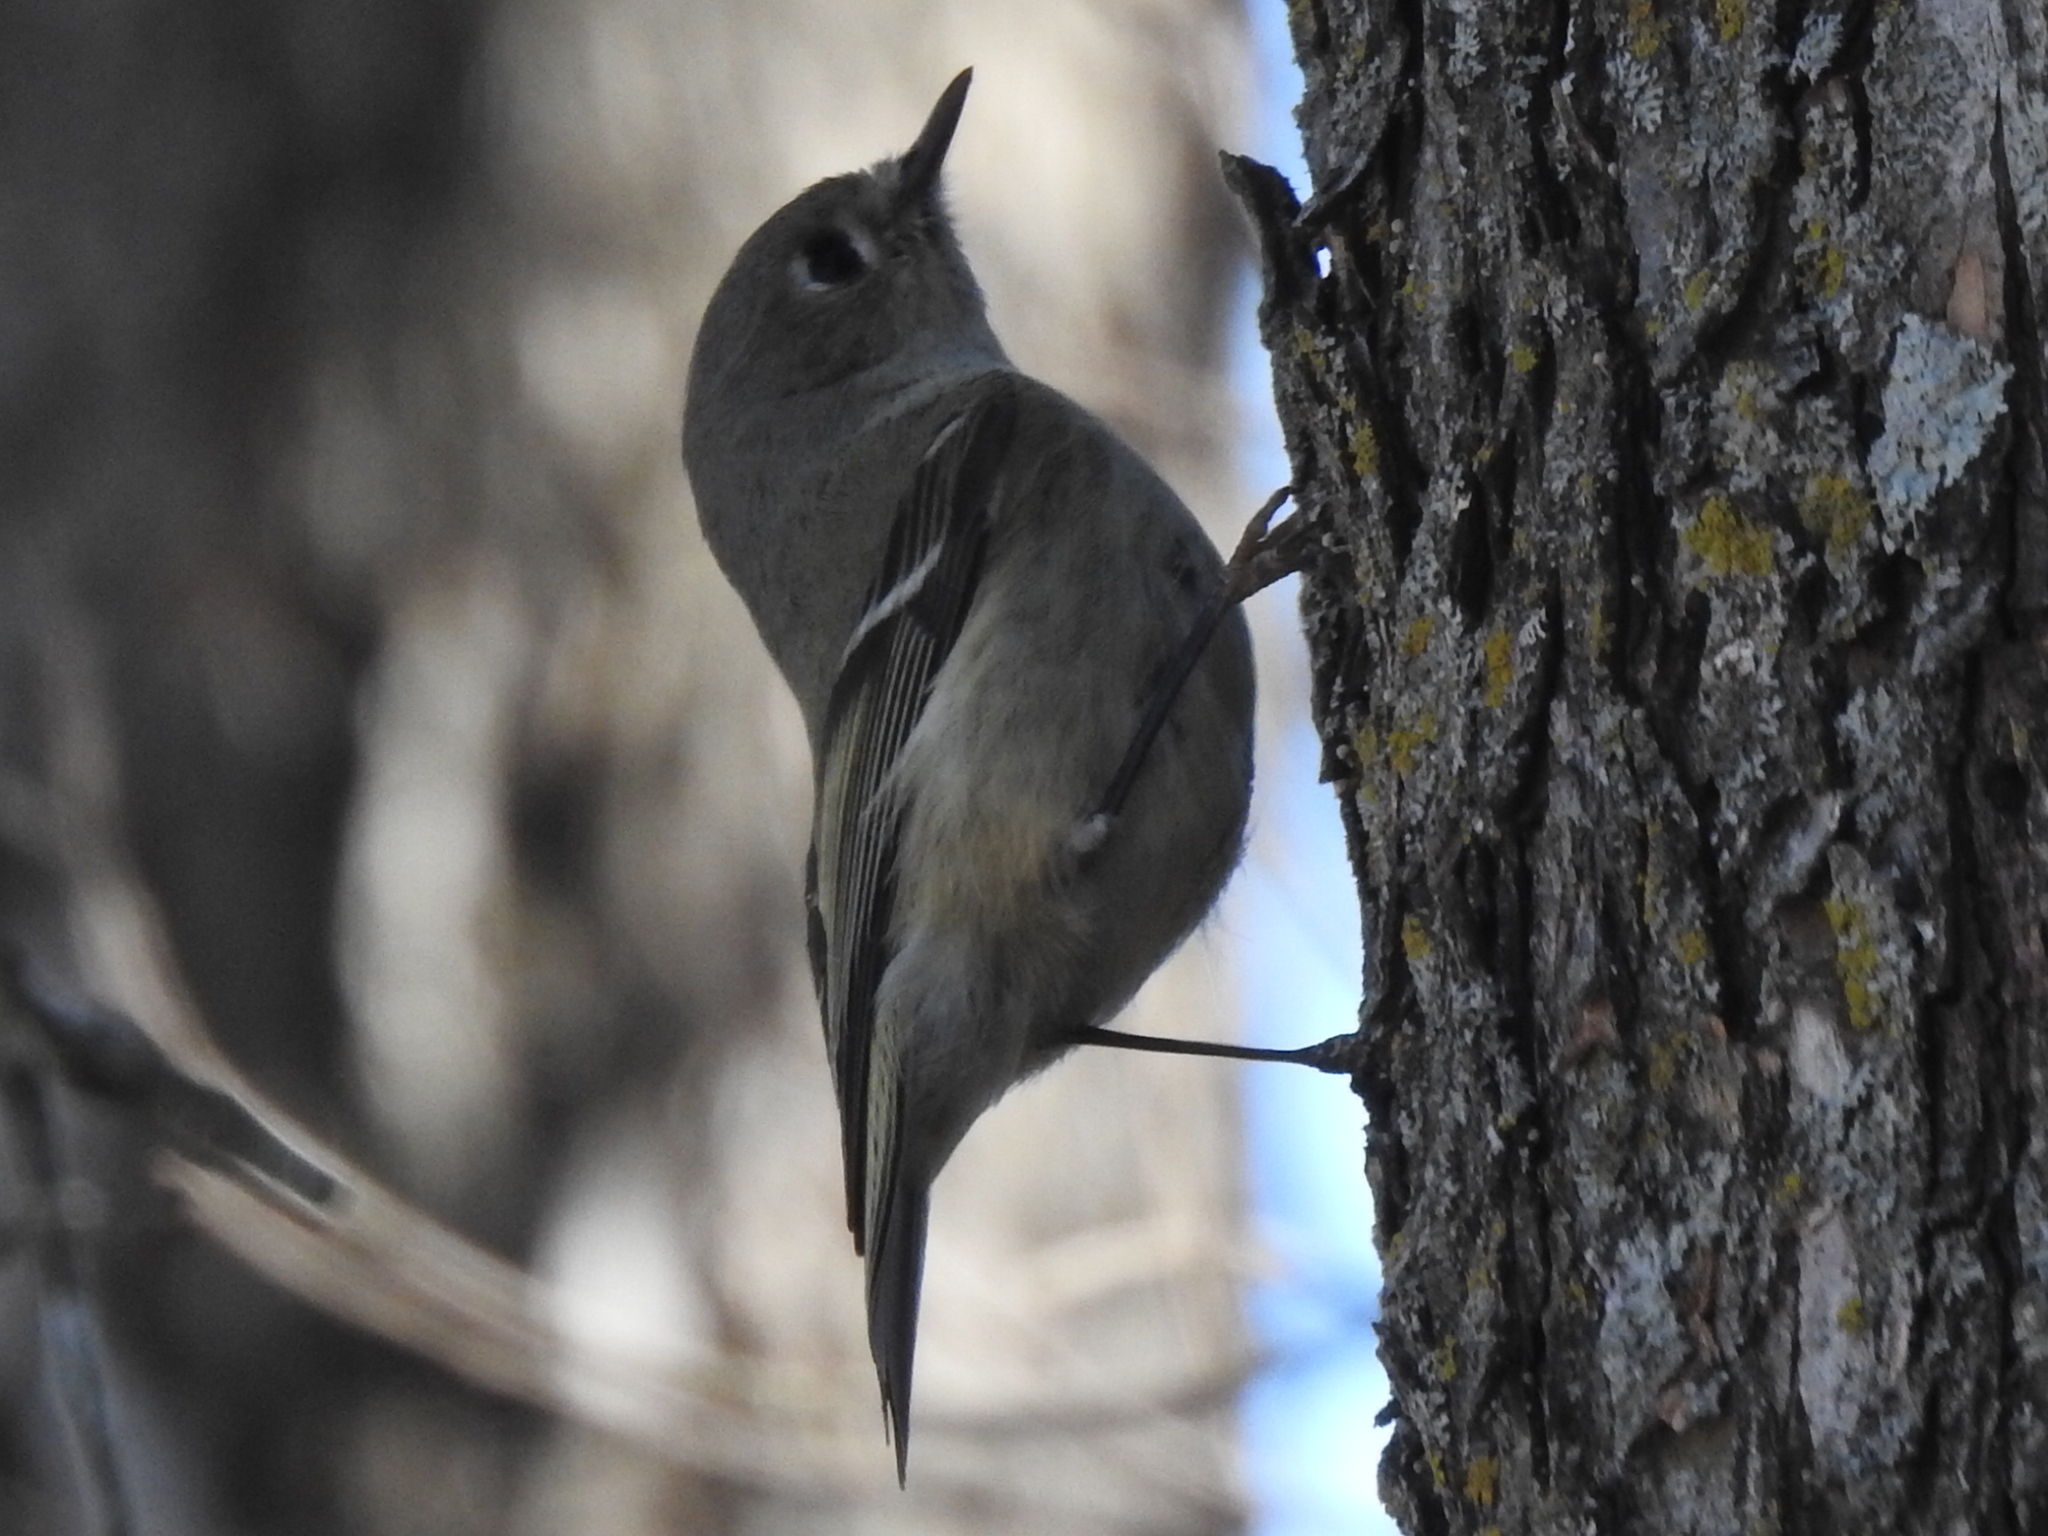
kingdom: Animalia
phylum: Chordata
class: Aves
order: Passeriformes
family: Regulidae
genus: Regulus
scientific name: Regulus calendula
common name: Ruby-crowned kinglet
